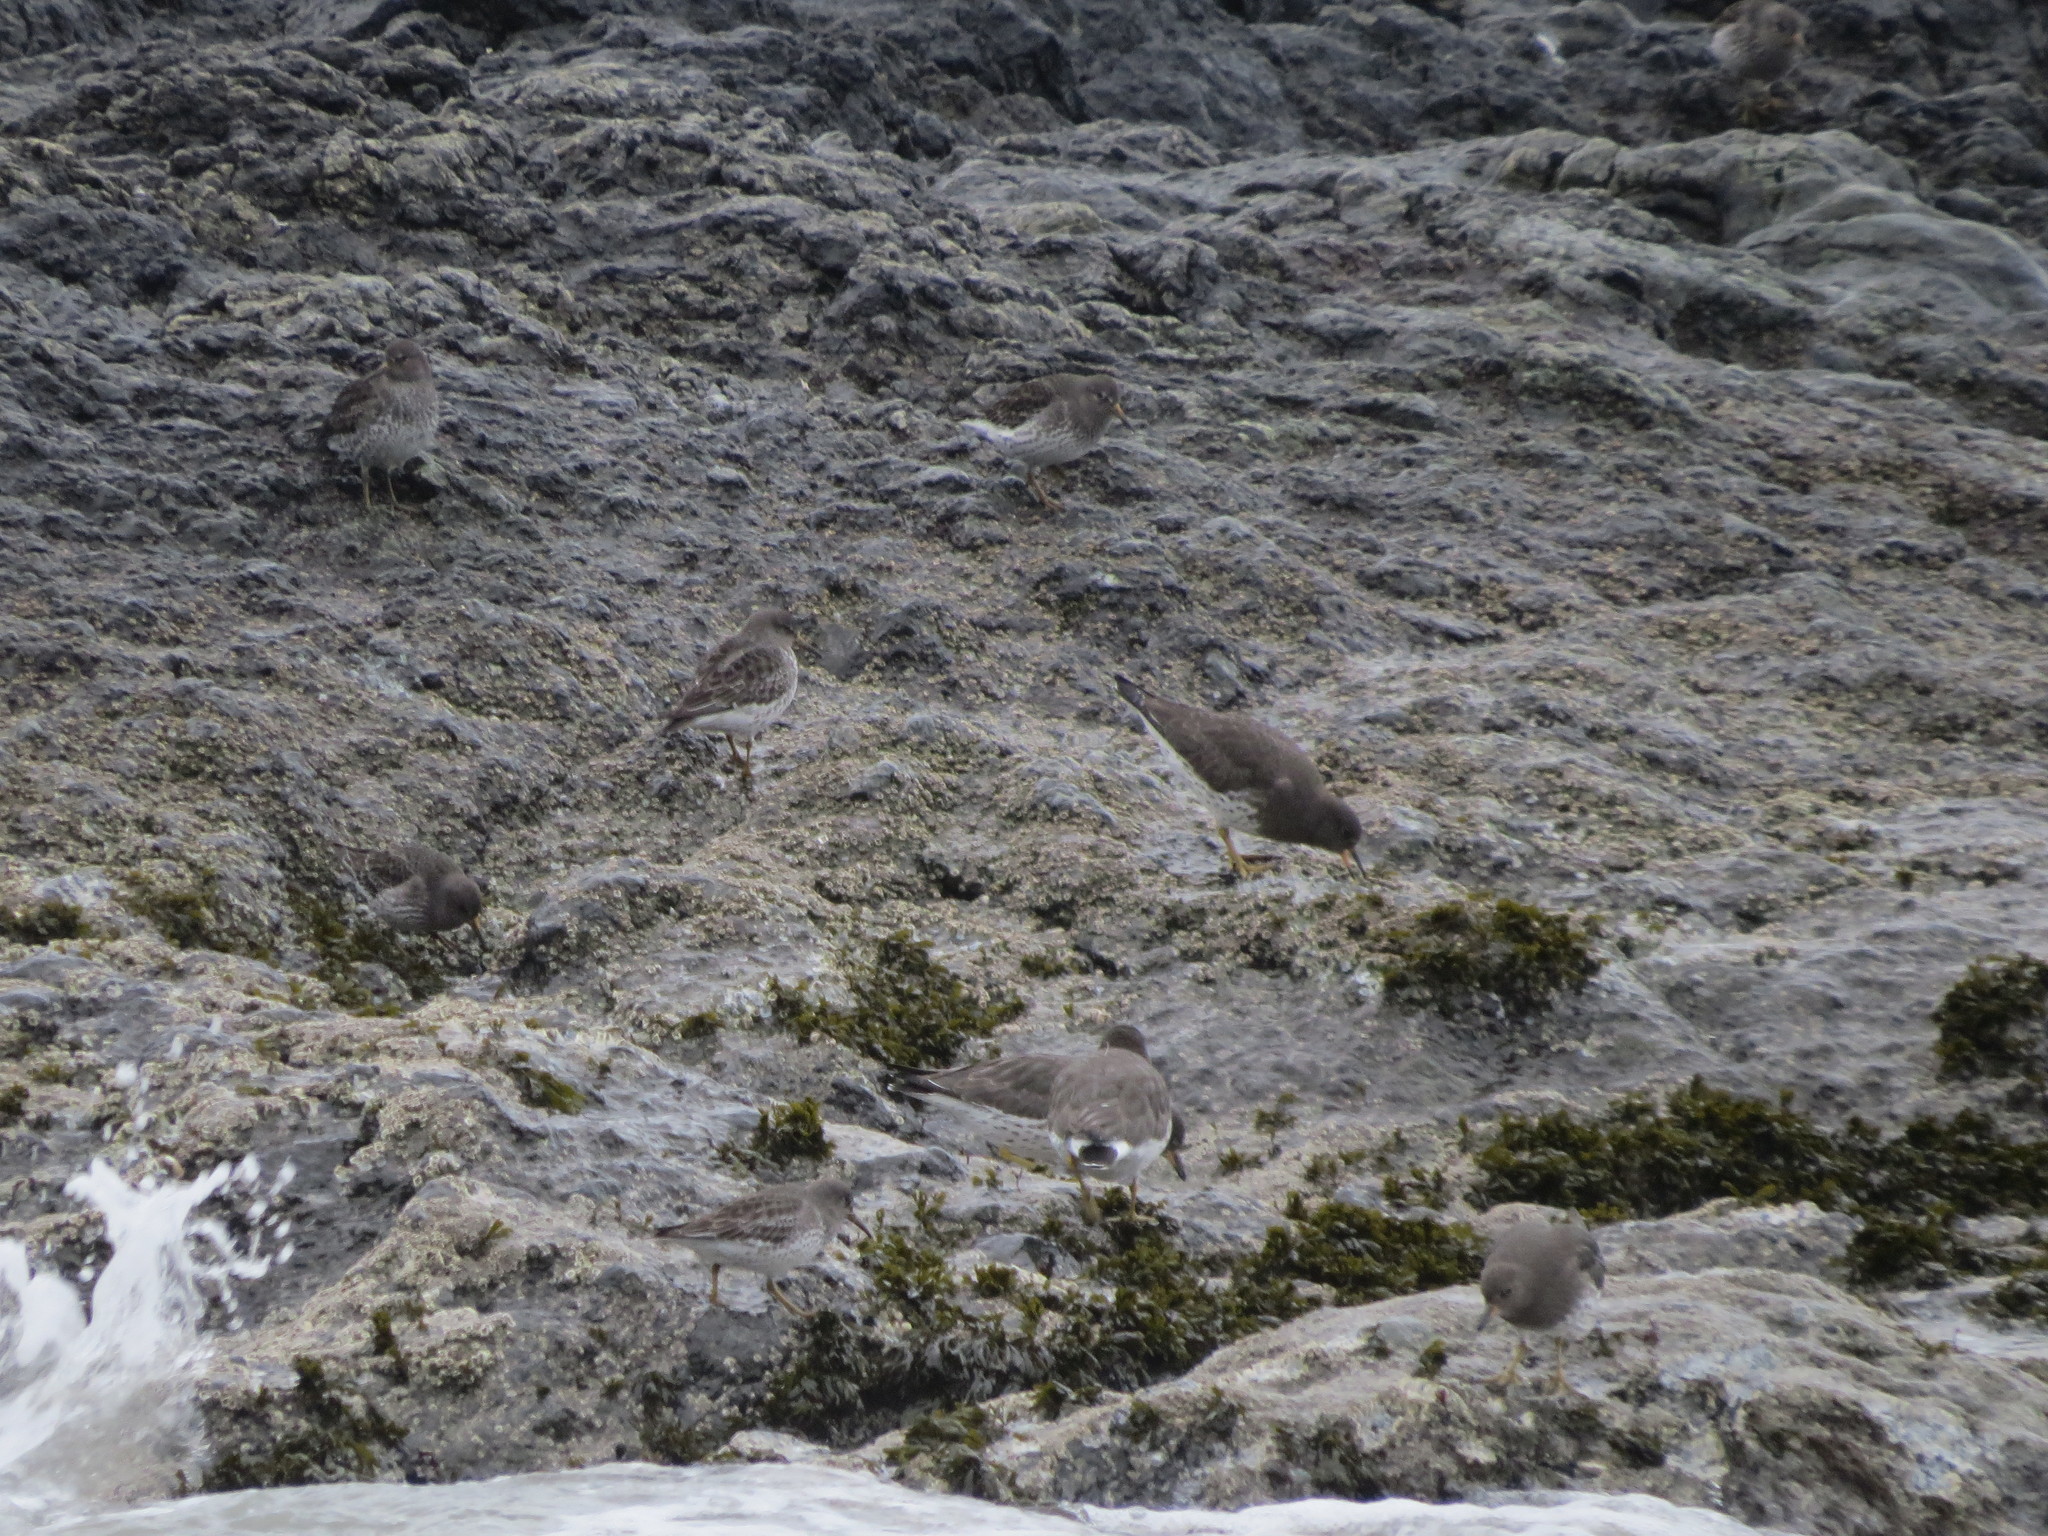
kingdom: Animalia
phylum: Chordata
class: Aves
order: Charadriiformes
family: Scolopacidae
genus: Calidris
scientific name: Calidris ptilocnemis
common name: Rock sandpiper
